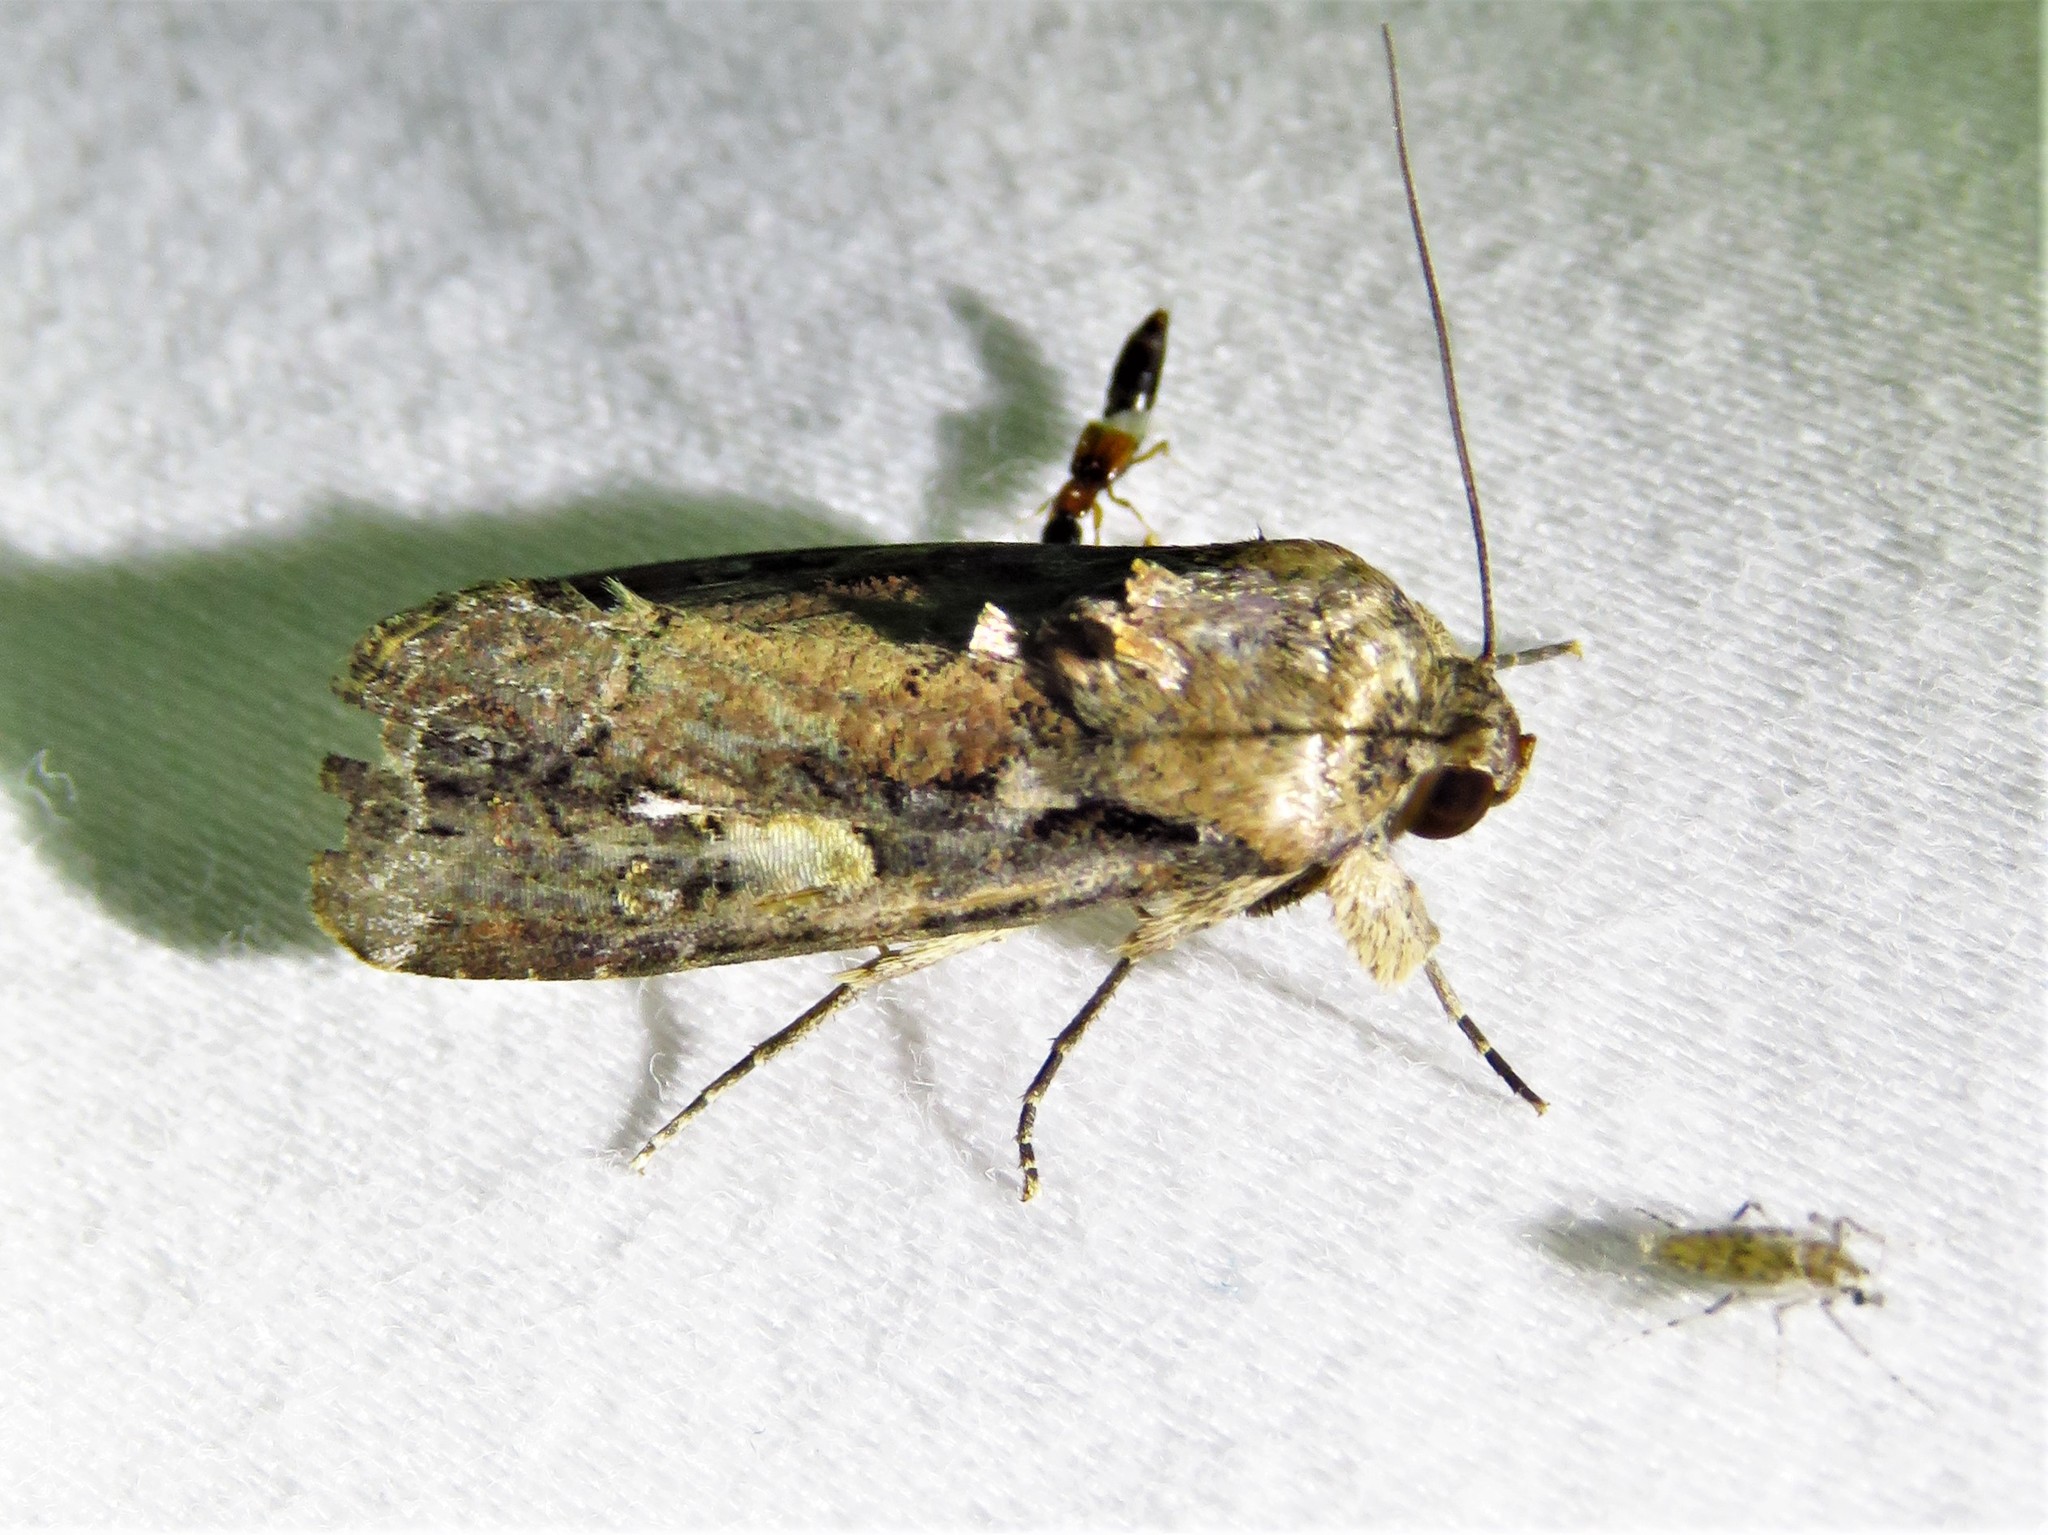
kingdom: Animalia
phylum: Arthropoda
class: Insecta
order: Lepidoptera
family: Noctuidae
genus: Spodoptera
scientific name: Spodoptera frugiperda
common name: Fall armyworm
